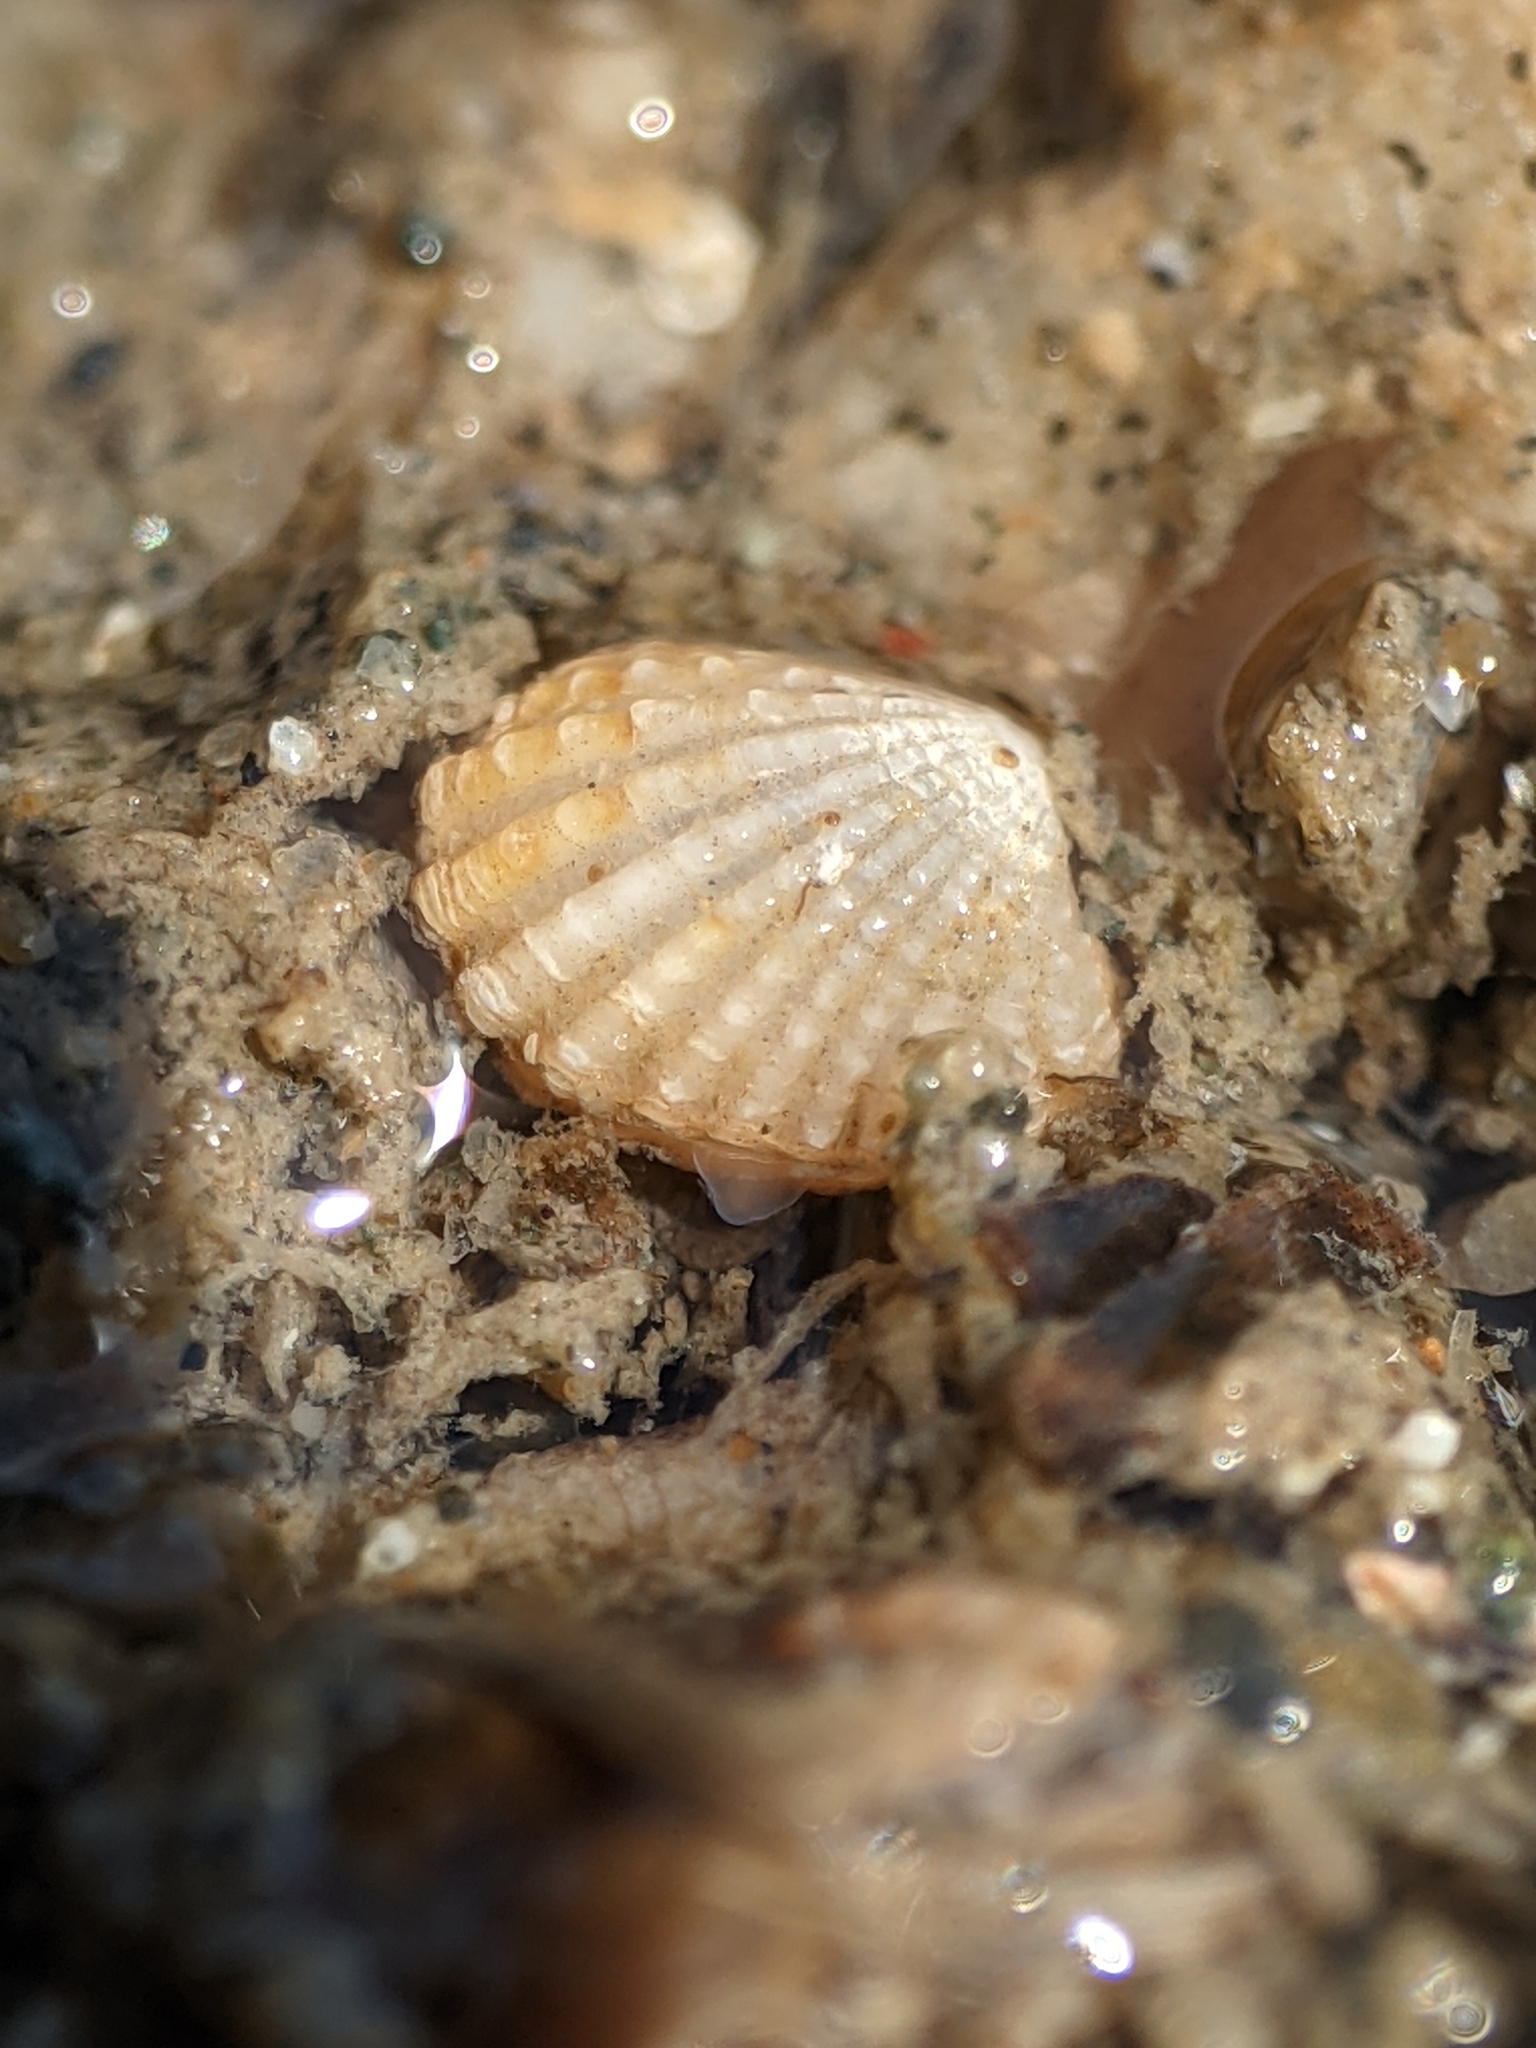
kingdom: Animalia
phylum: Mollusca
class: Bivalvia
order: Carditida
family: Carditidae
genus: Glans
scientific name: Glans carpenteri
